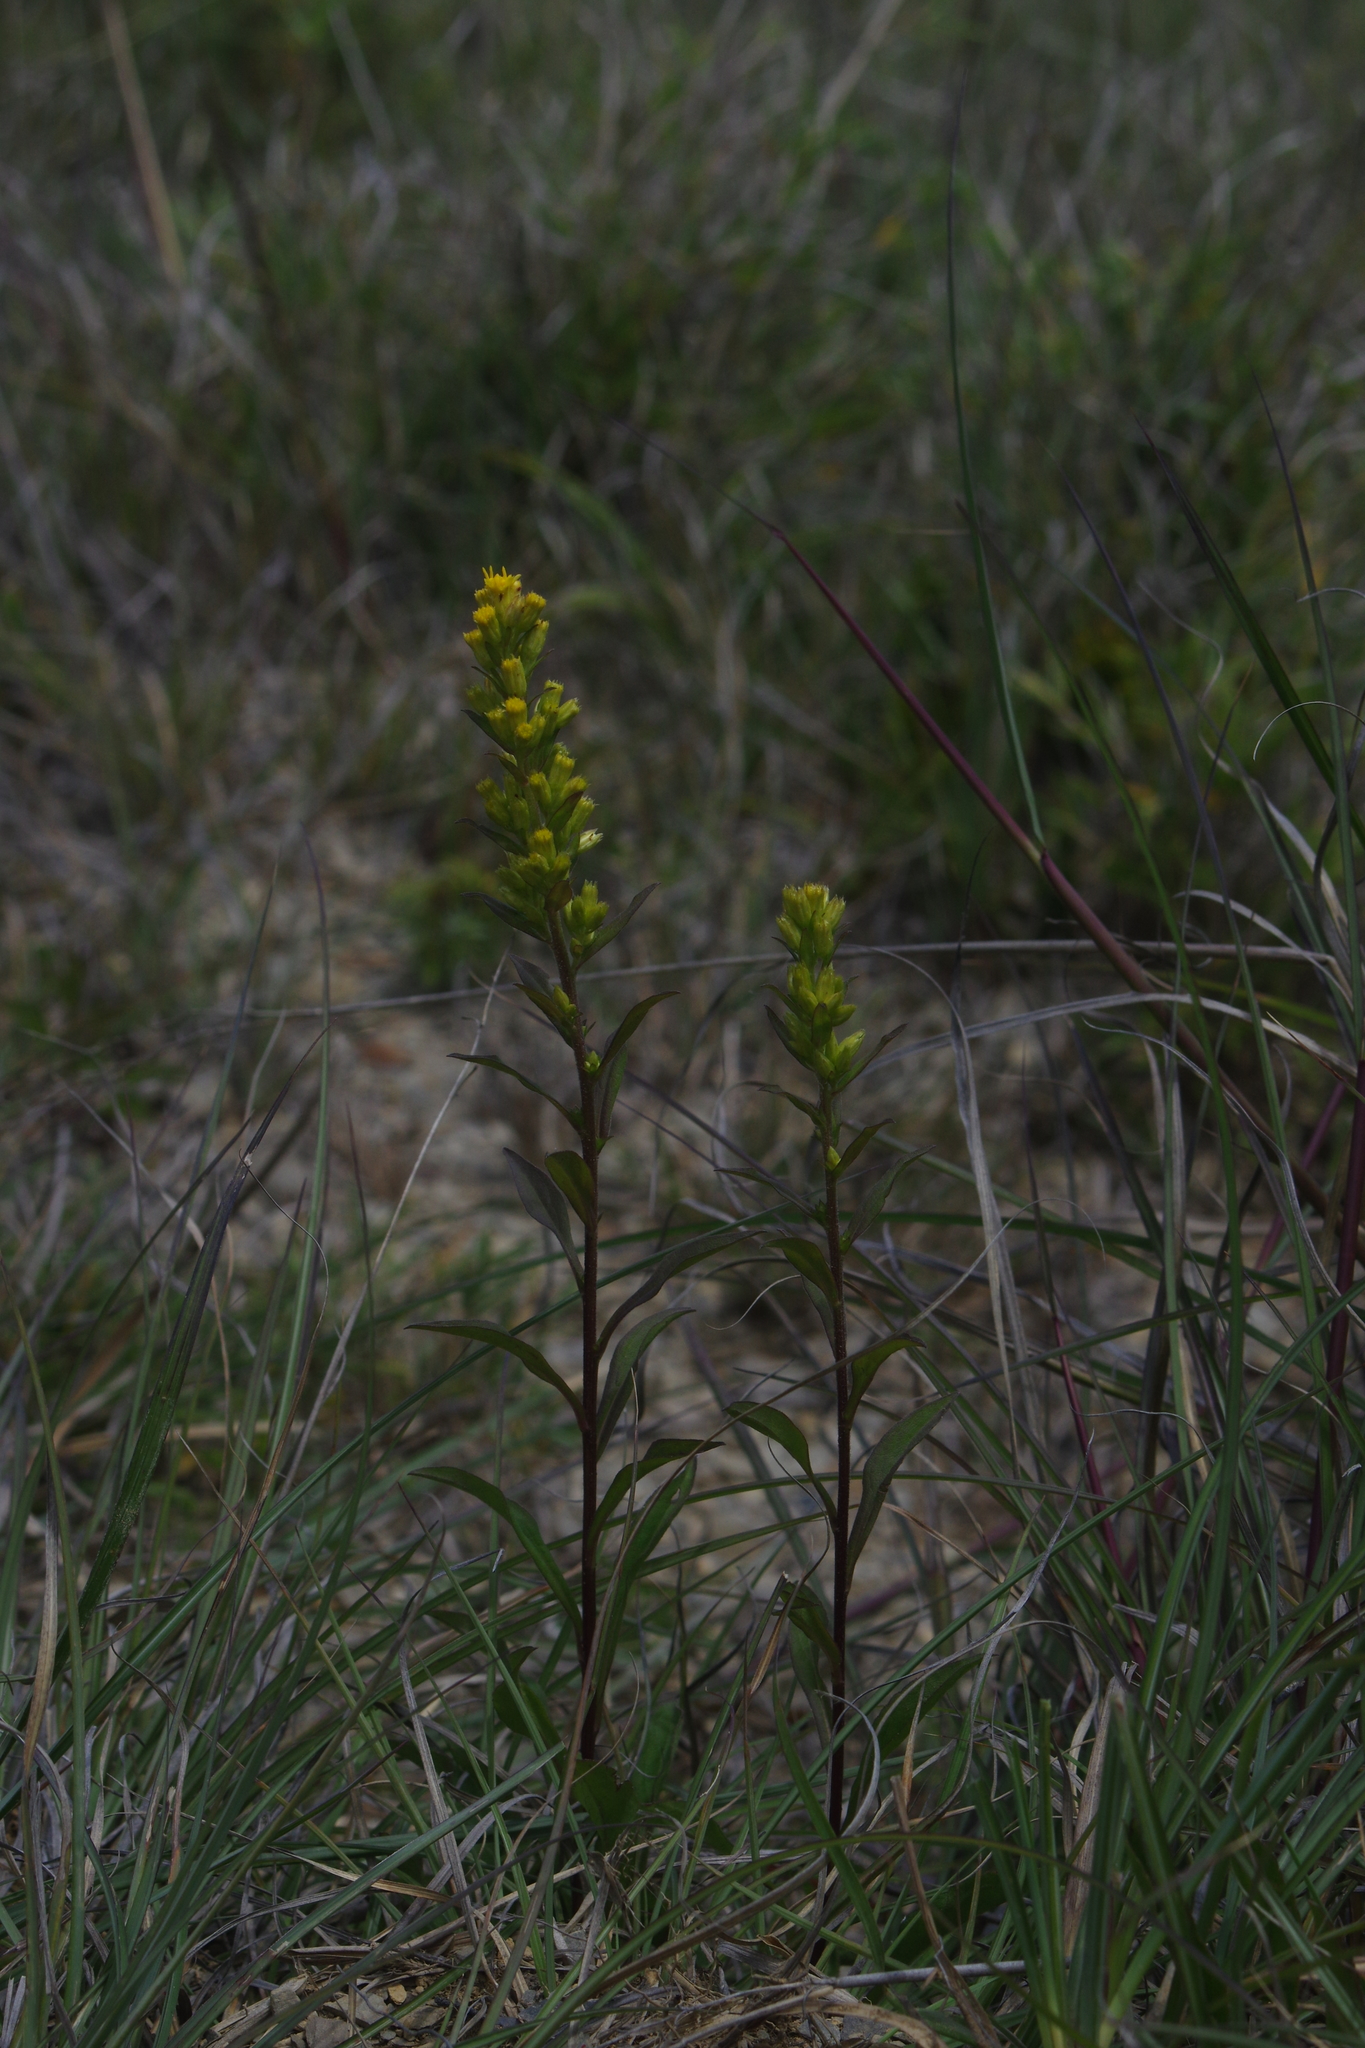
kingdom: Plantae
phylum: Tracheophyta
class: Magnoliopsida
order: Asterales
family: Asteraceae
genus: Solidago
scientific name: Solidago decurrens
